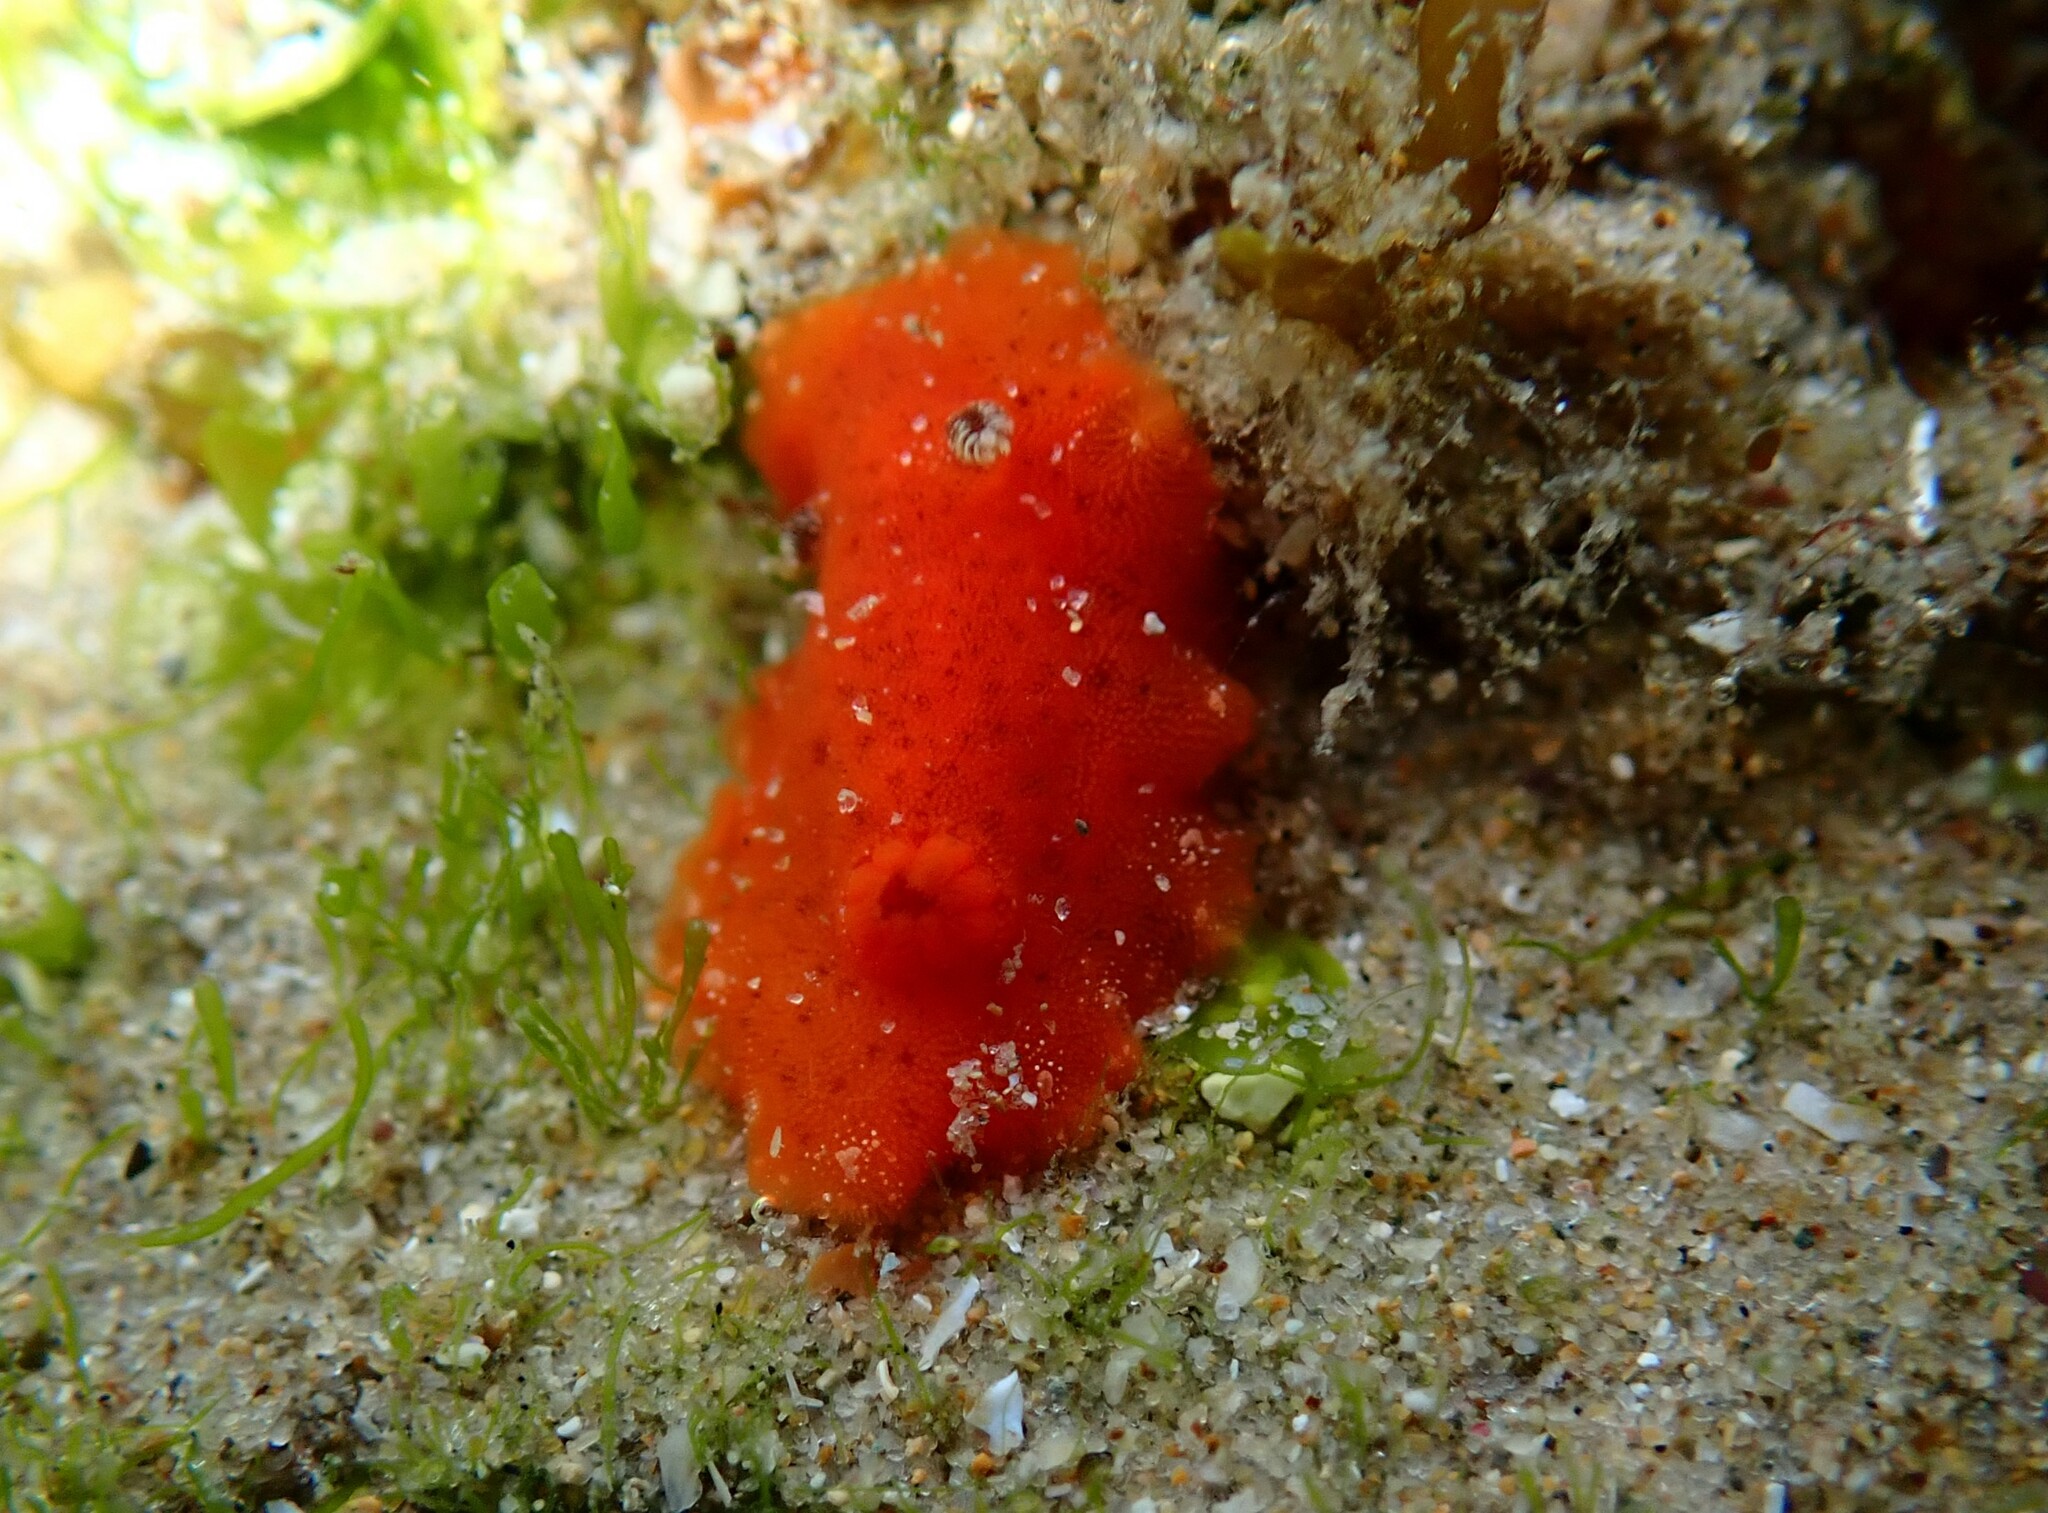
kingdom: Animalia
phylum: Mollusca
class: Gastropoda
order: Nudibranchia
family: Discodorididae
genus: Rostanga
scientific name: Rostanga arbutus
